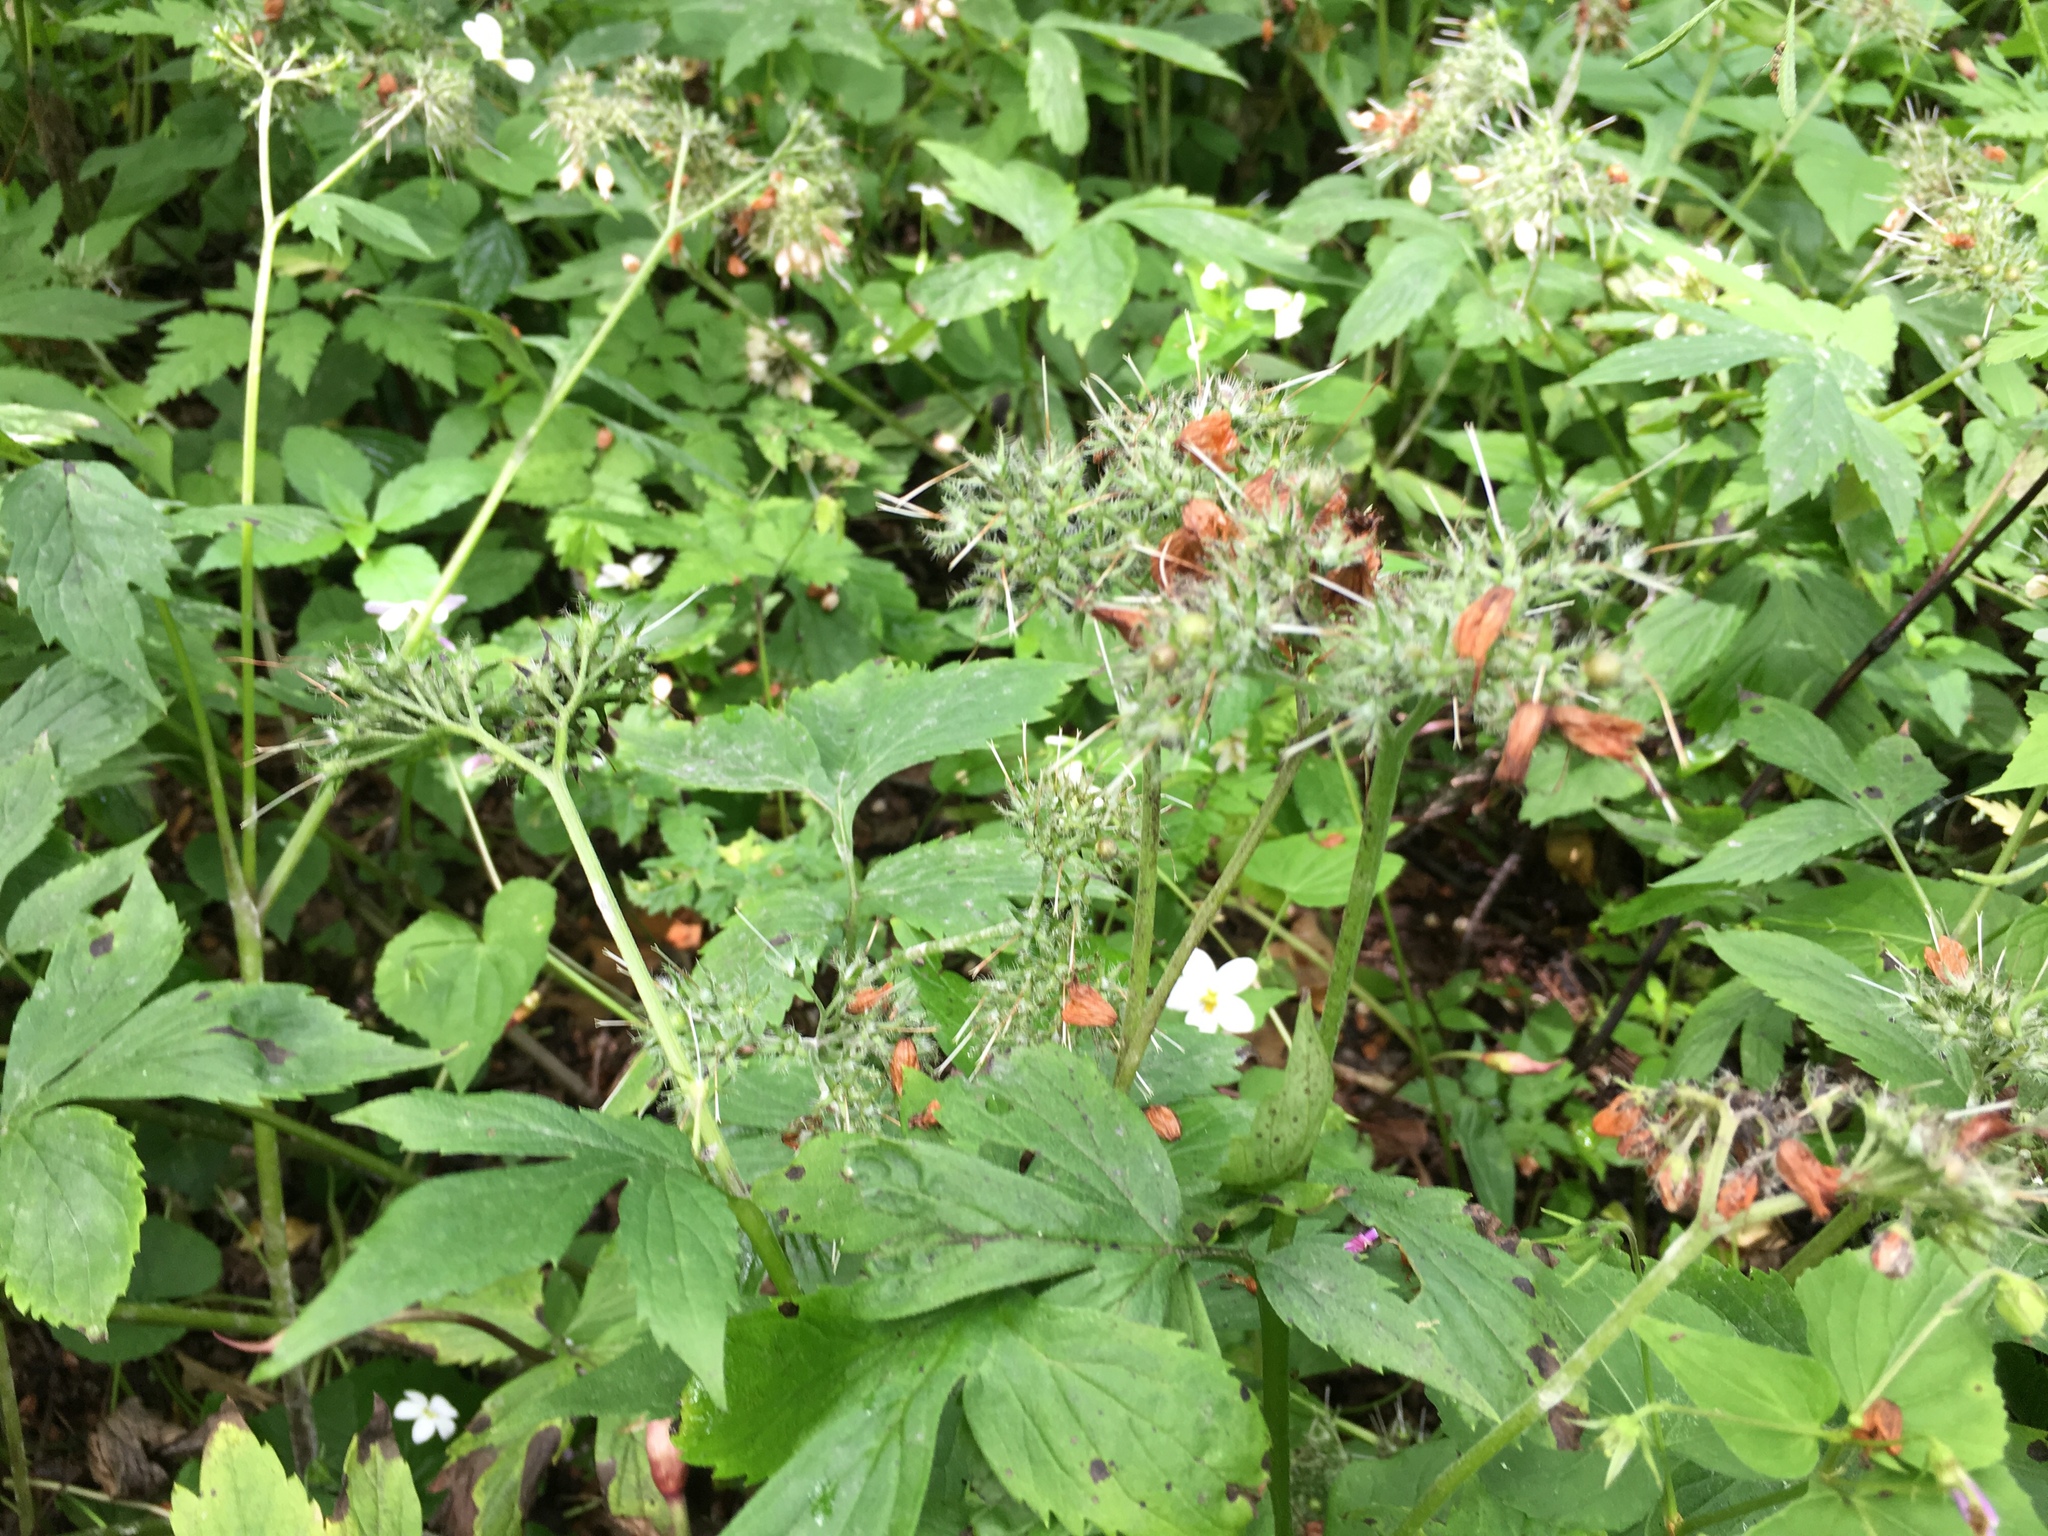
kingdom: Plantae
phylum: Tracheophyta
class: Magnoliopsida
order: Boraginales
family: Hydrophyllaceae
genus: Hydrophyllum
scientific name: Hydrophyllum virginianum
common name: Virginia waterleaf
